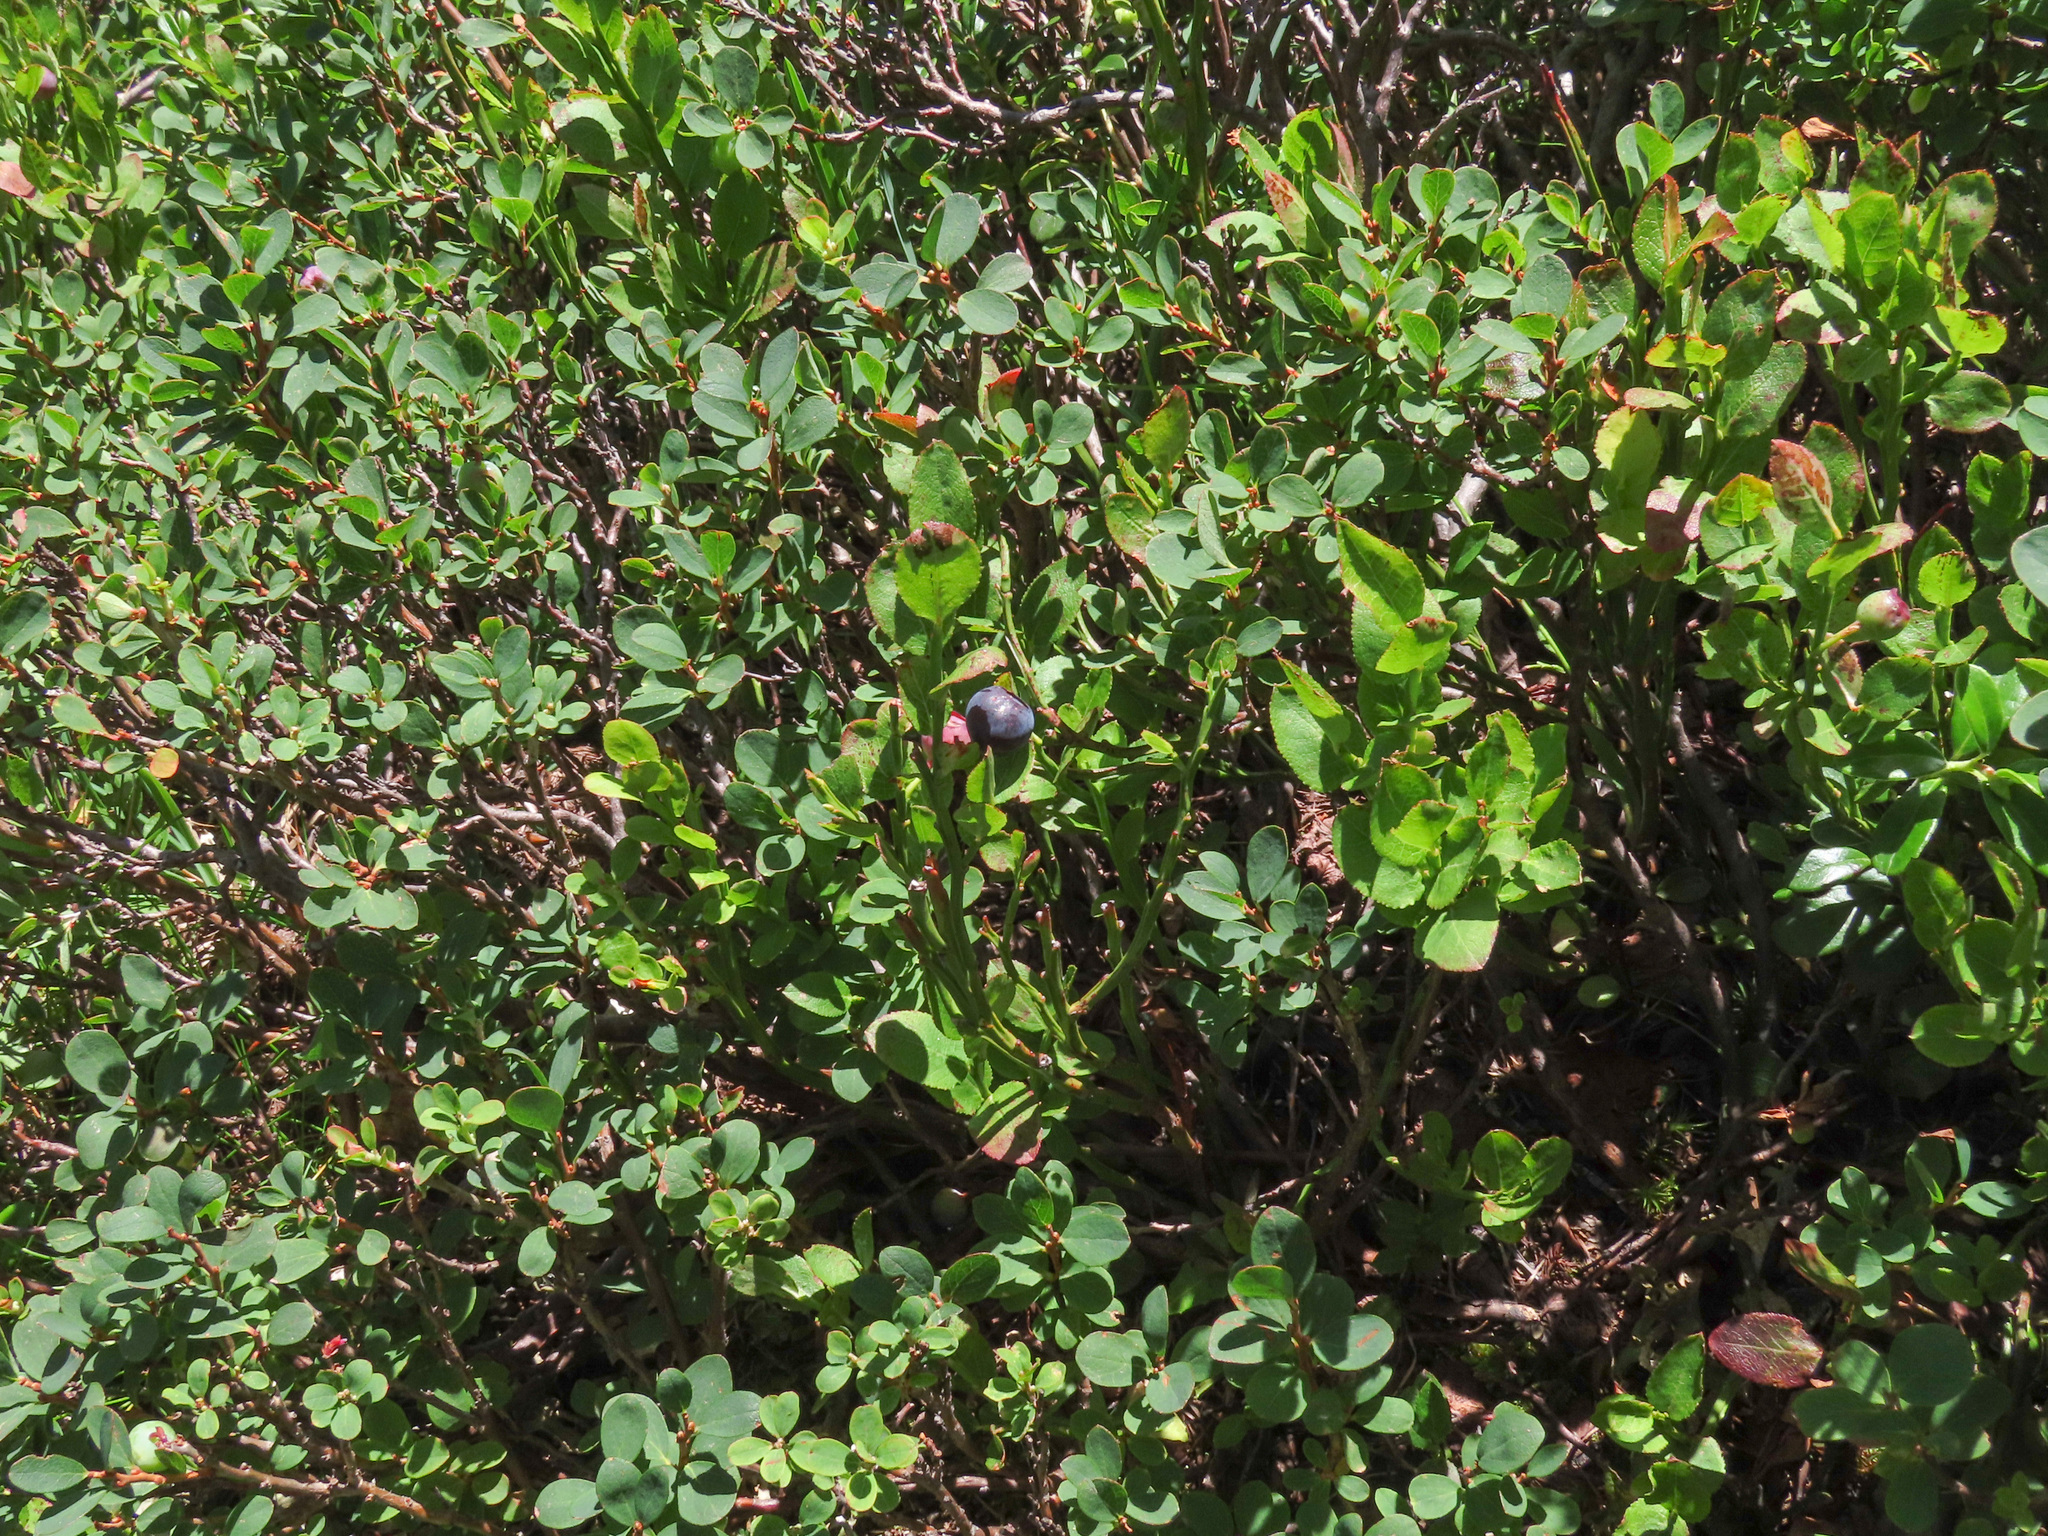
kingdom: Plantae
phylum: Tracheophyta
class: Magnoliopsida
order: Ericales
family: Ericaceae
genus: Vaccinium
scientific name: Vaccinium myrtillus
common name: Bilberry
